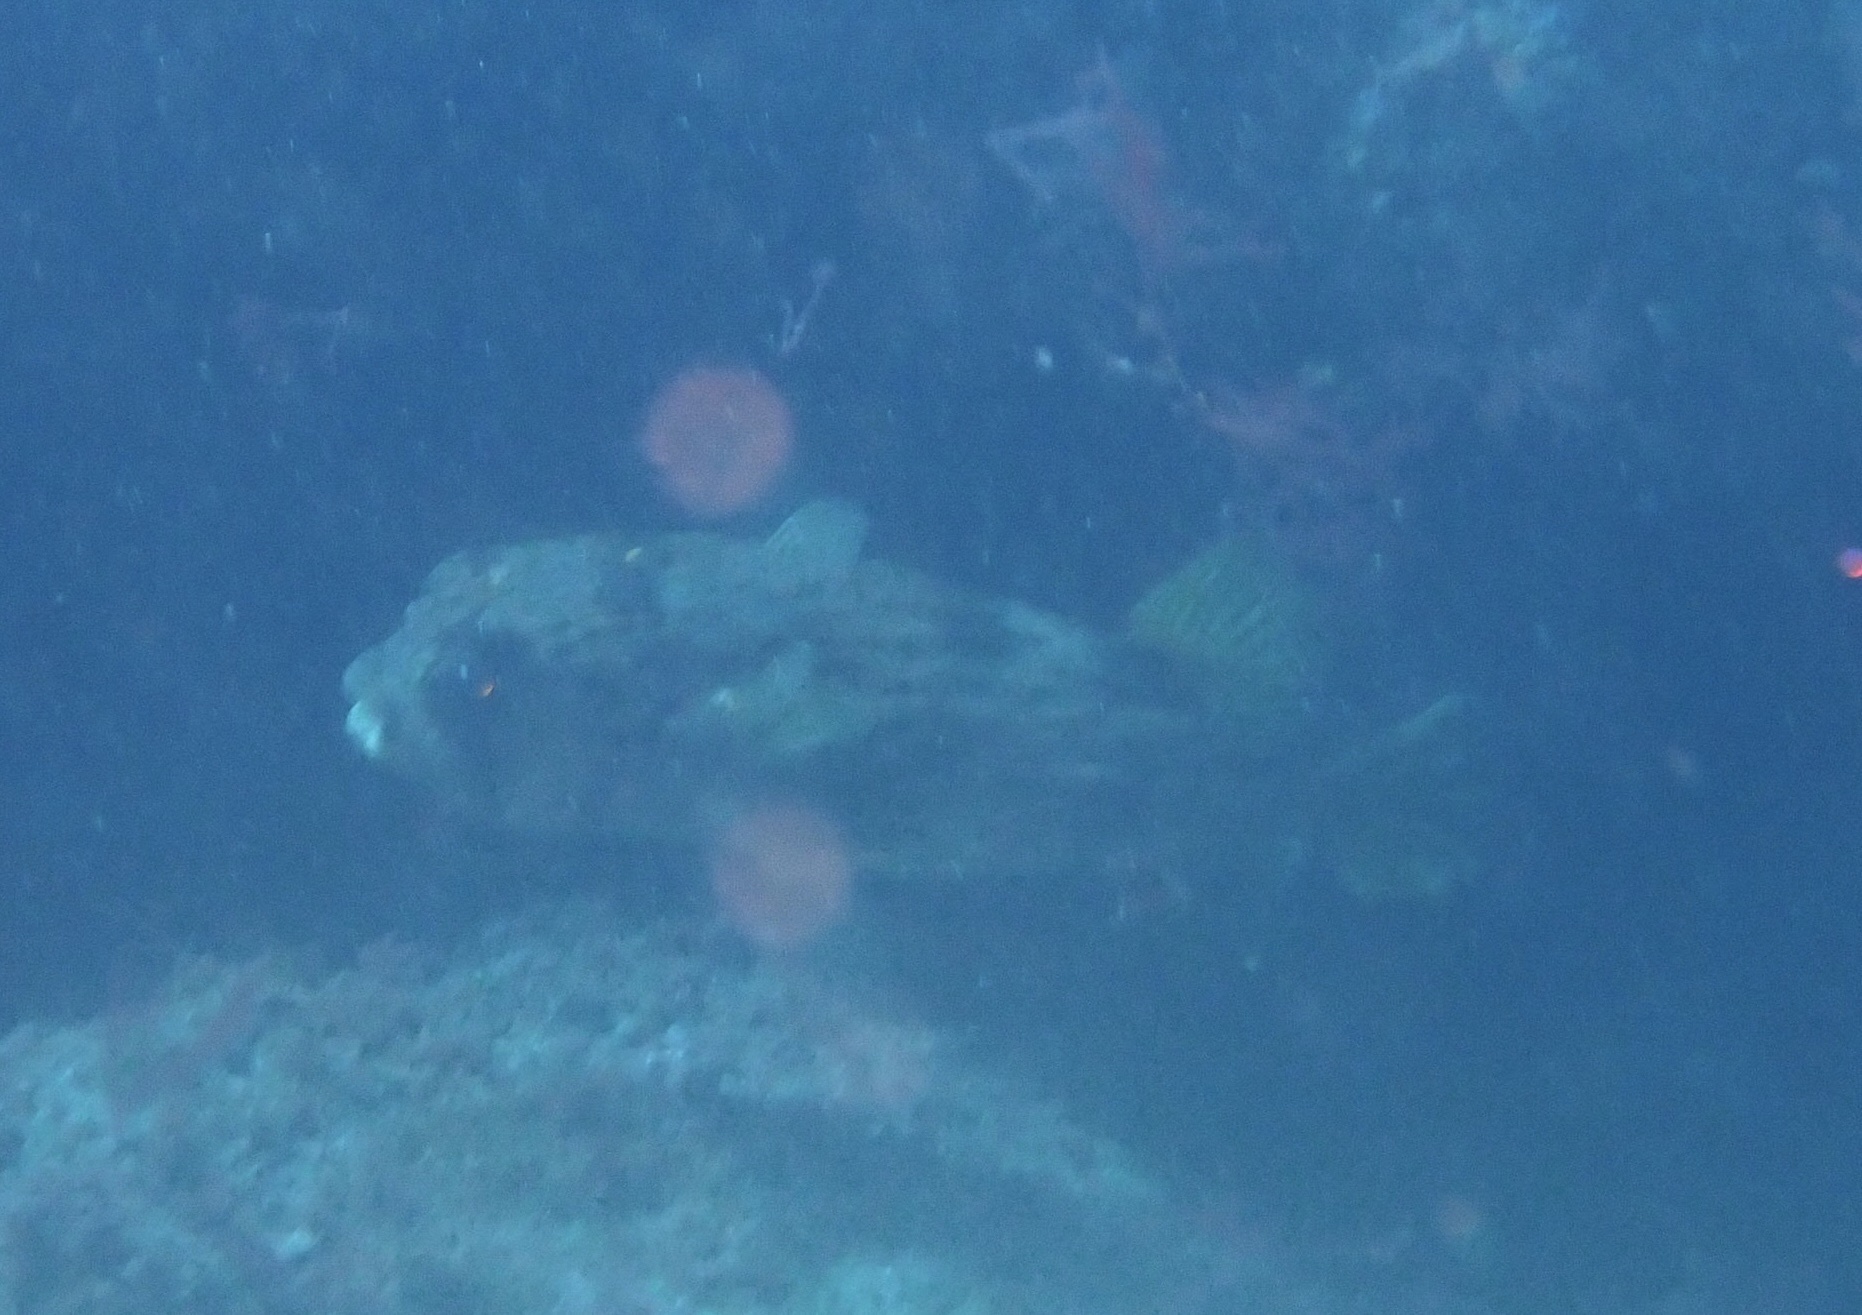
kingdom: Animalia
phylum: Chordata
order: Tetraodontiformes
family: Diodontidae
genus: Diodon
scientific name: Diodon holocanthus
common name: Balloonfish
